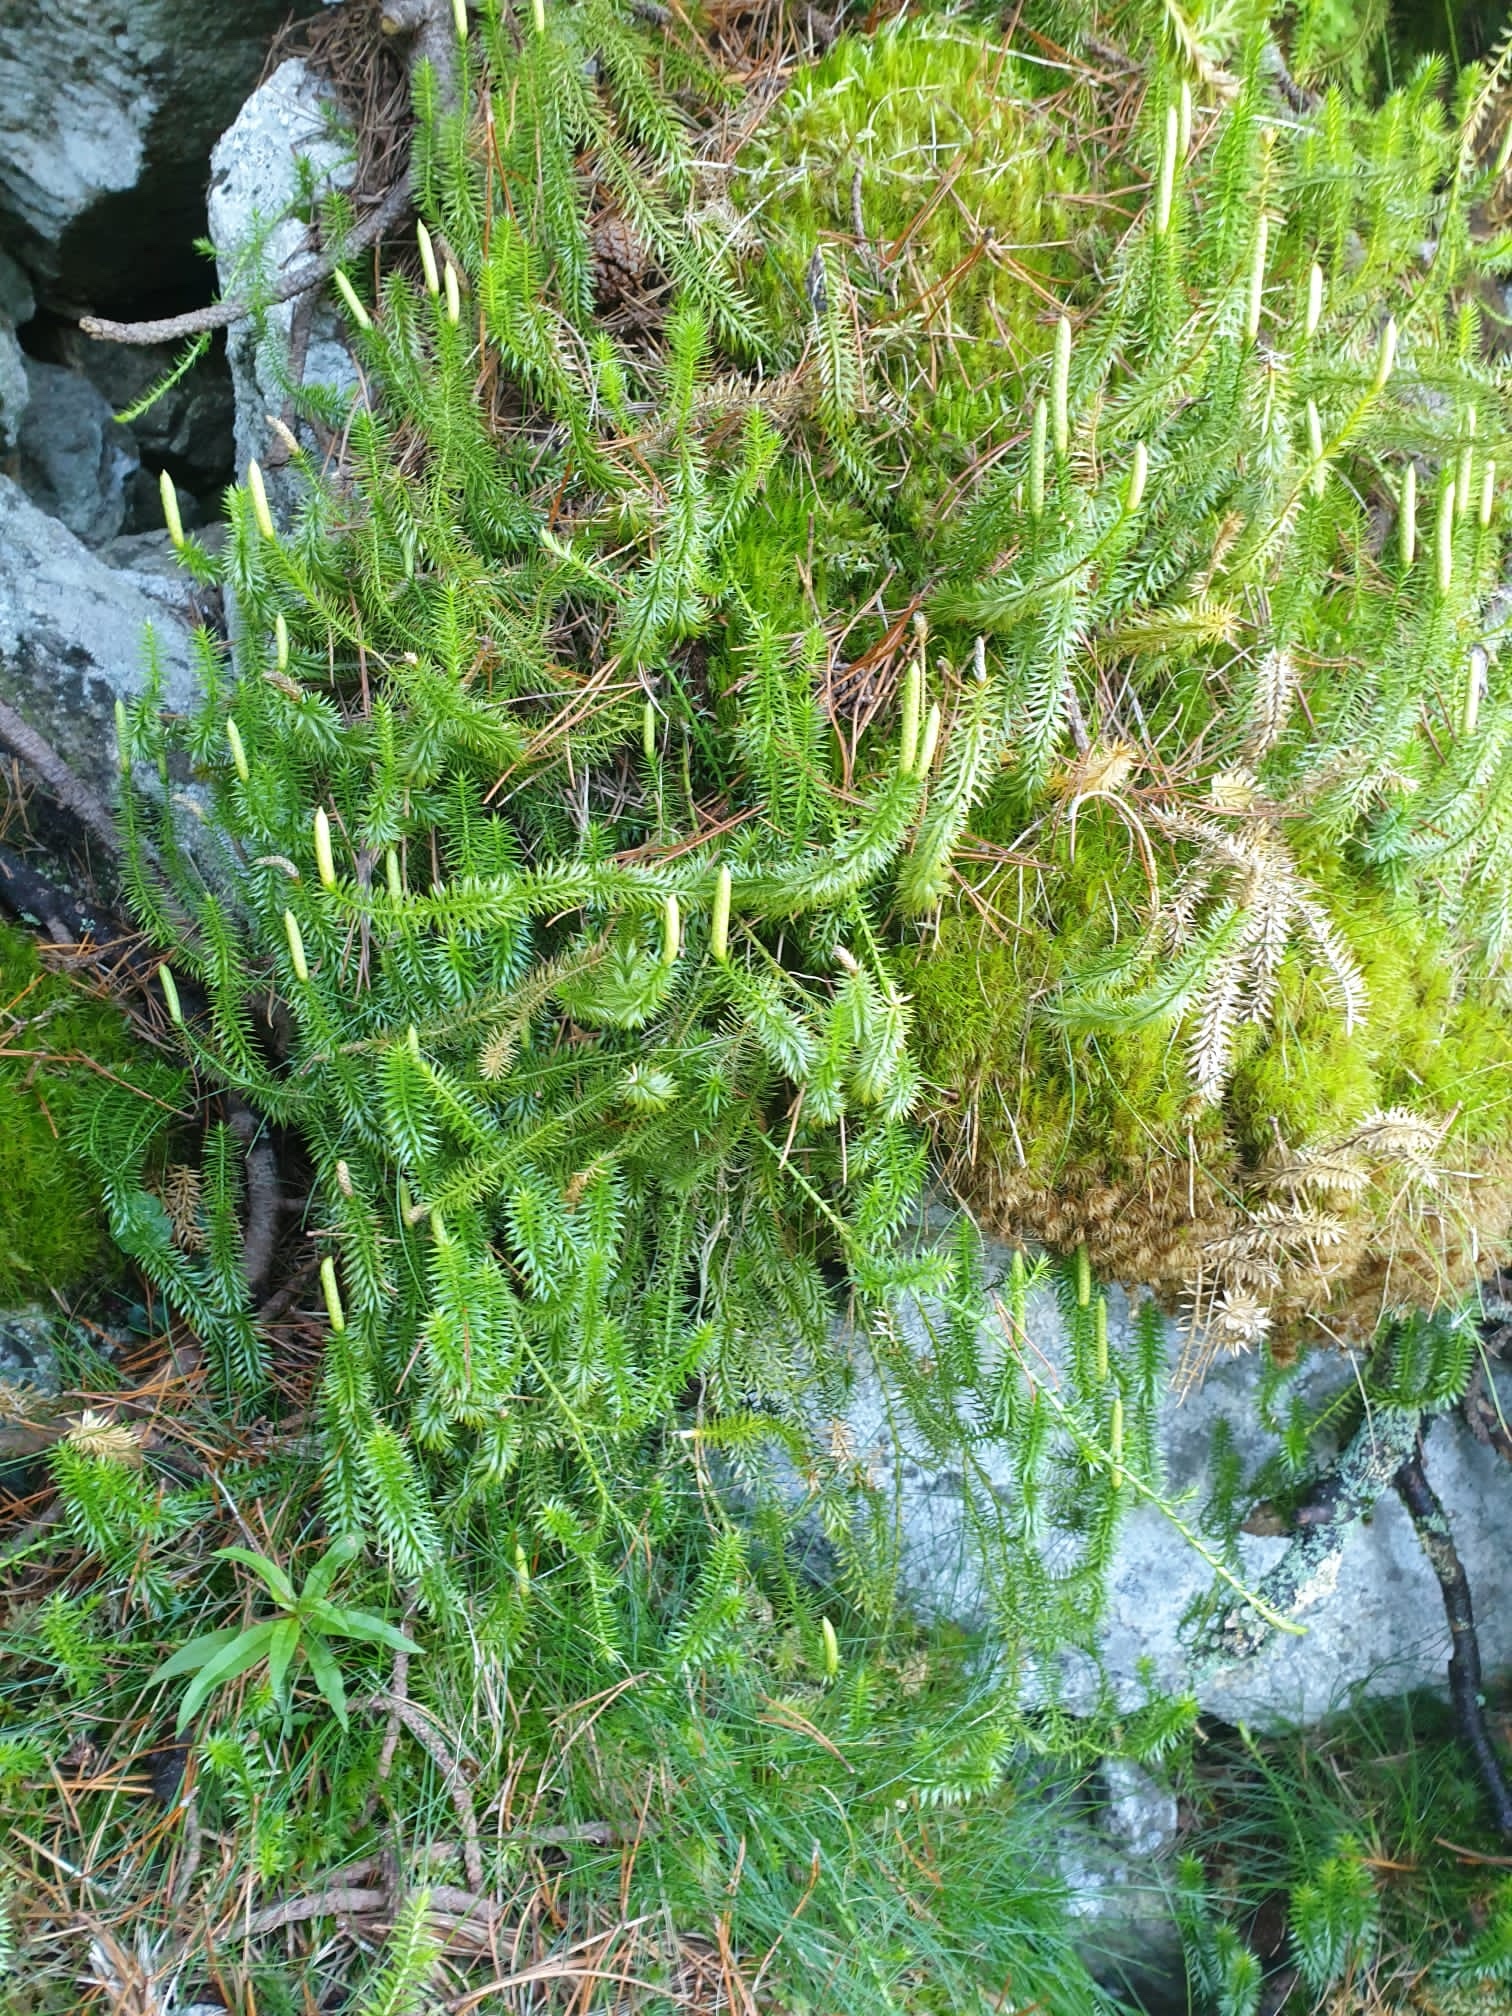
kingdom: Plantae
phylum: Tracheophyta
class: Lycopodiopsida
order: Lycopodiales
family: Lycopodiaceae
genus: Spinulum
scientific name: Spinulum annotinum
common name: Interrupted club-moss
